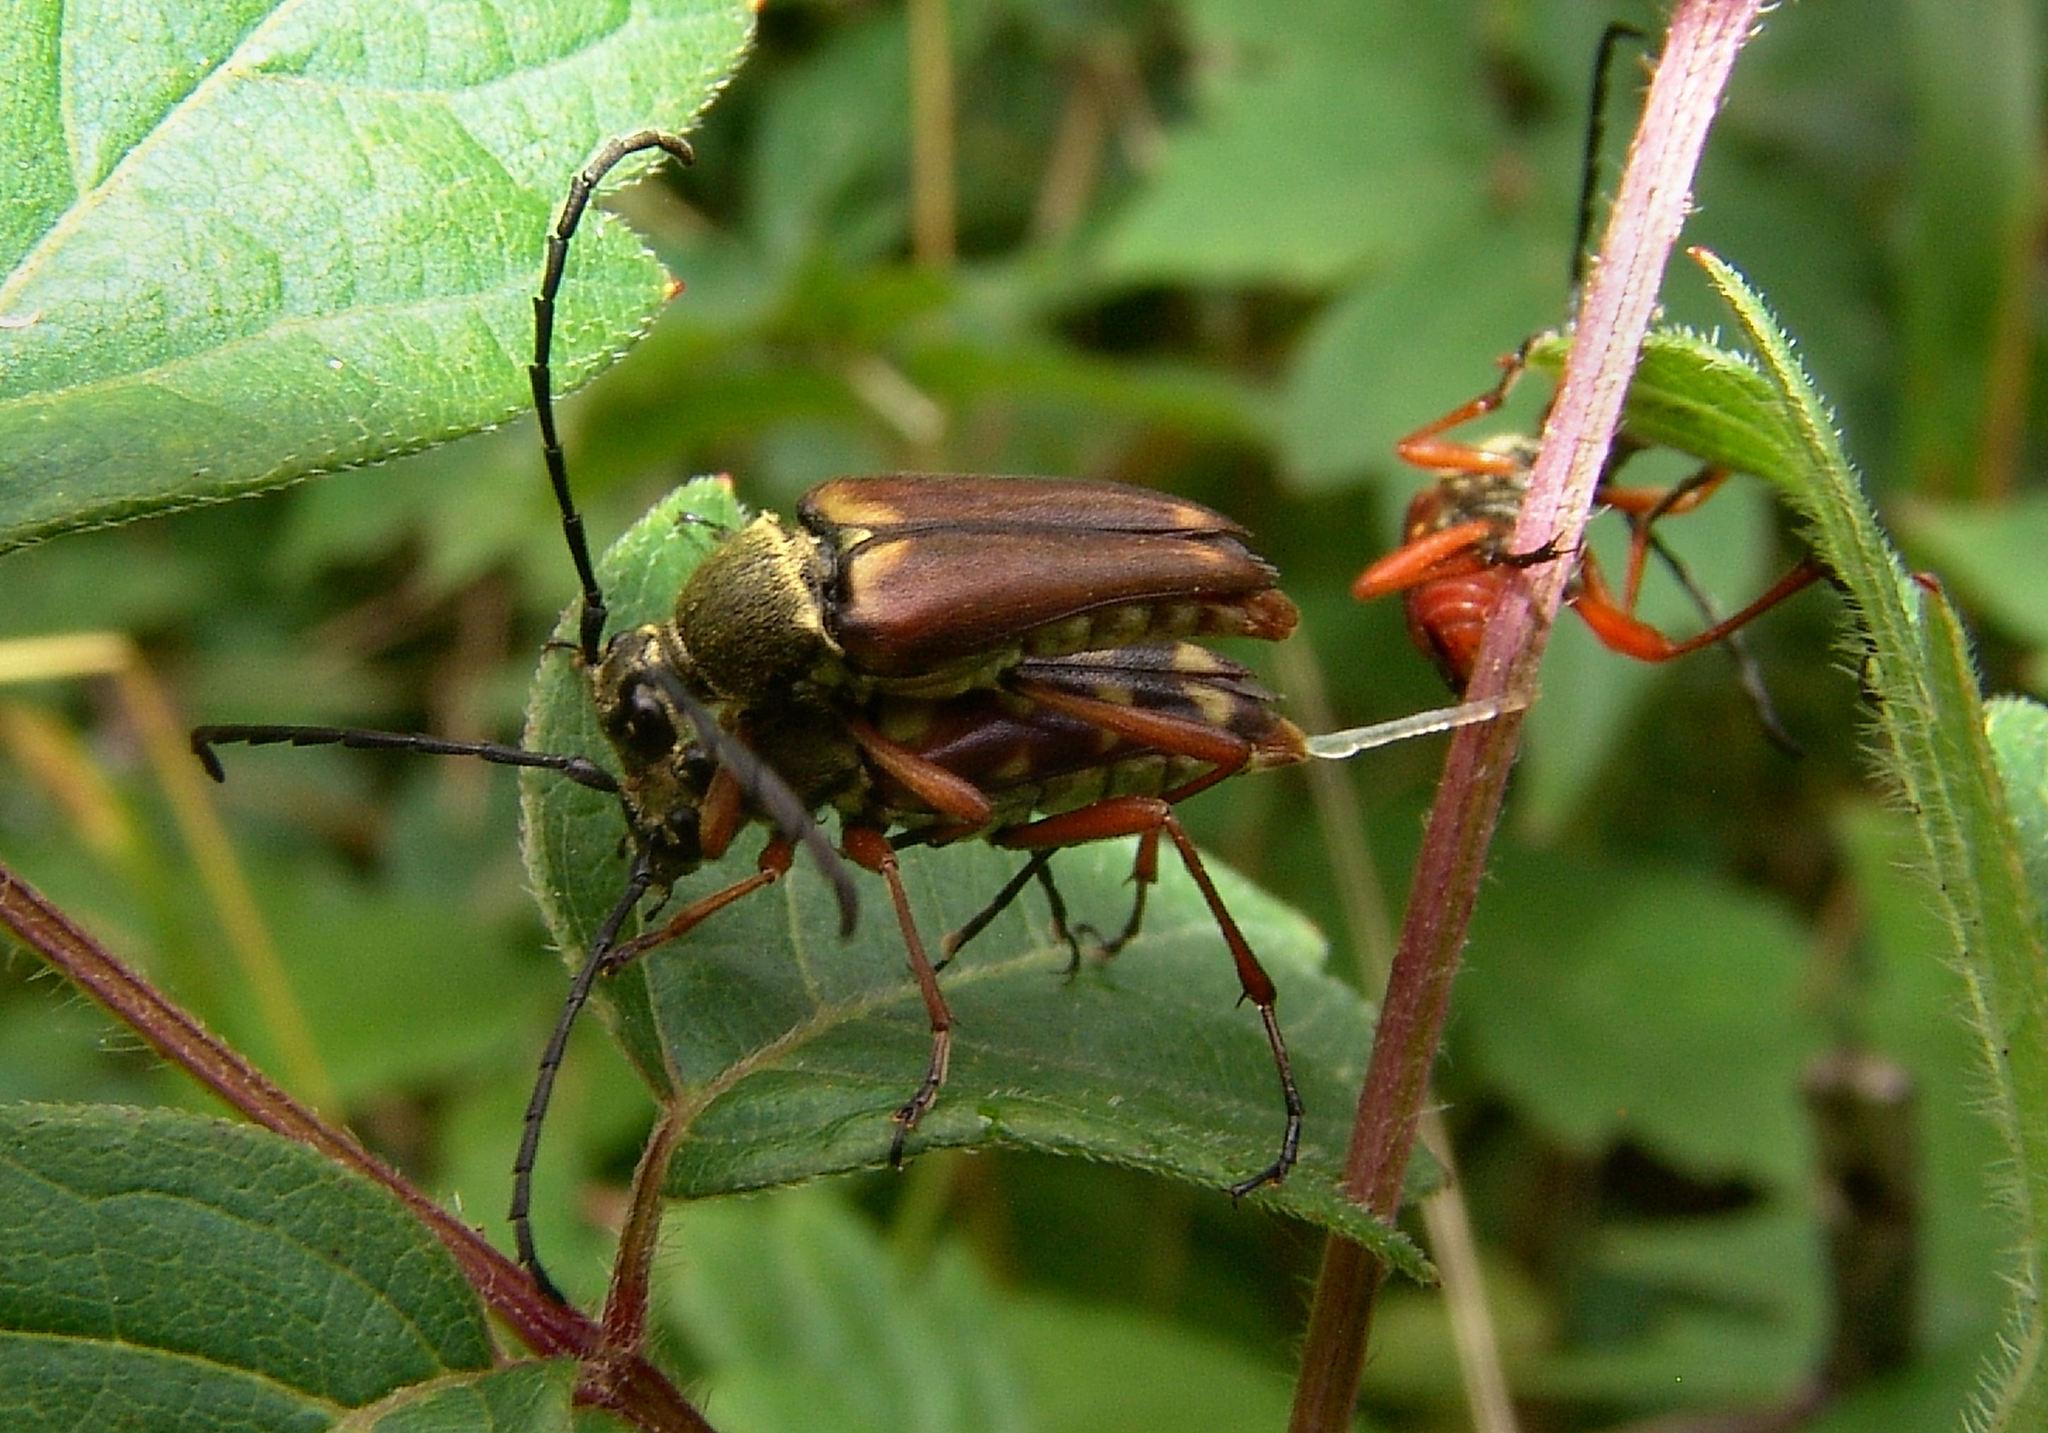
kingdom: Animalia
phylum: Arthropoda
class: Insecta
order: Coleoptera
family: Cerambycidae
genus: Typocerus
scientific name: Typocerus velutinus
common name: Banded longhorn beetle
